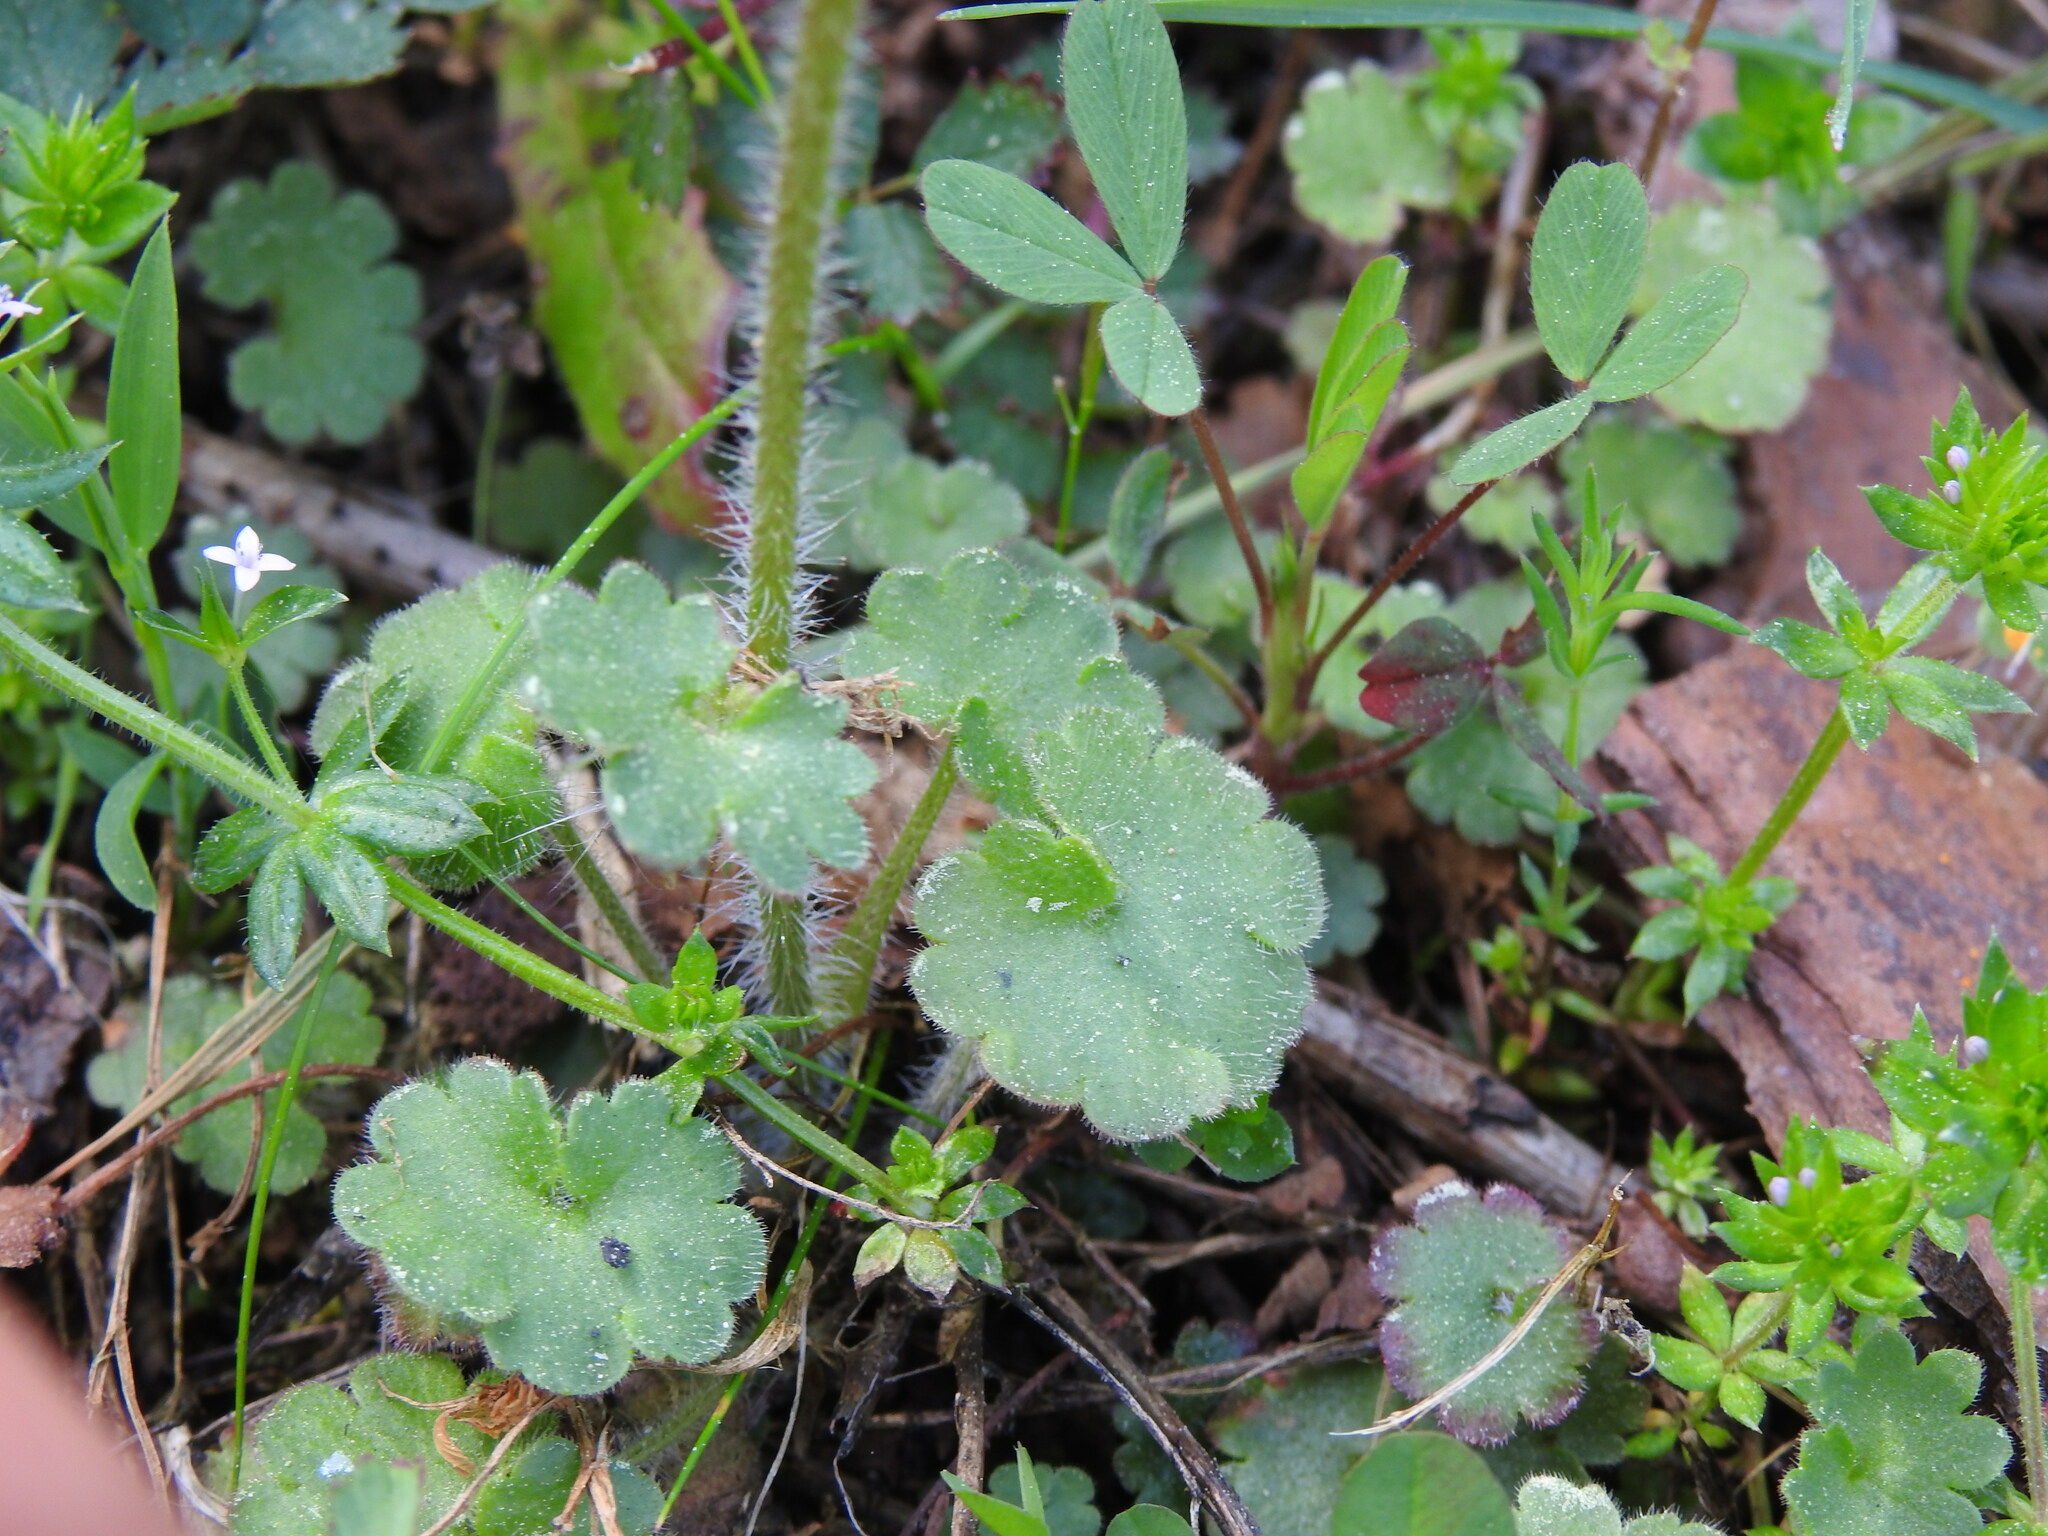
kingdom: Plantae
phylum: Tracheophyta
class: Magnoliopsida
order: Saxifragales
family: Saxifragaceae
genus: Saxifraga
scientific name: Saxifraga granulata
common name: Meadow saxifrage
